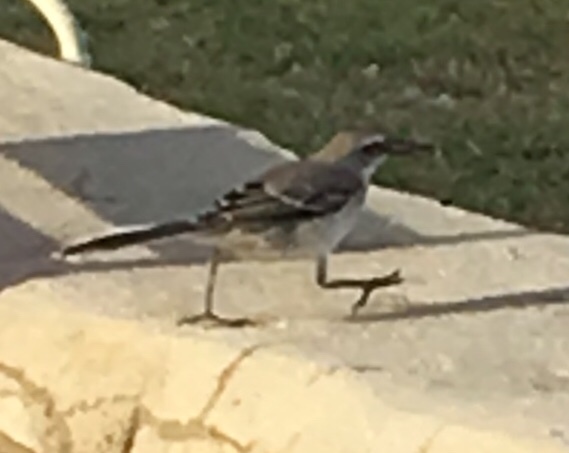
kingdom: Animalia
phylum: Chordata
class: Aves
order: Passeriformes
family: Mimidae
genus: Mimus
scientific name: Mimus gilvus
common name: Tropical mockingbird
